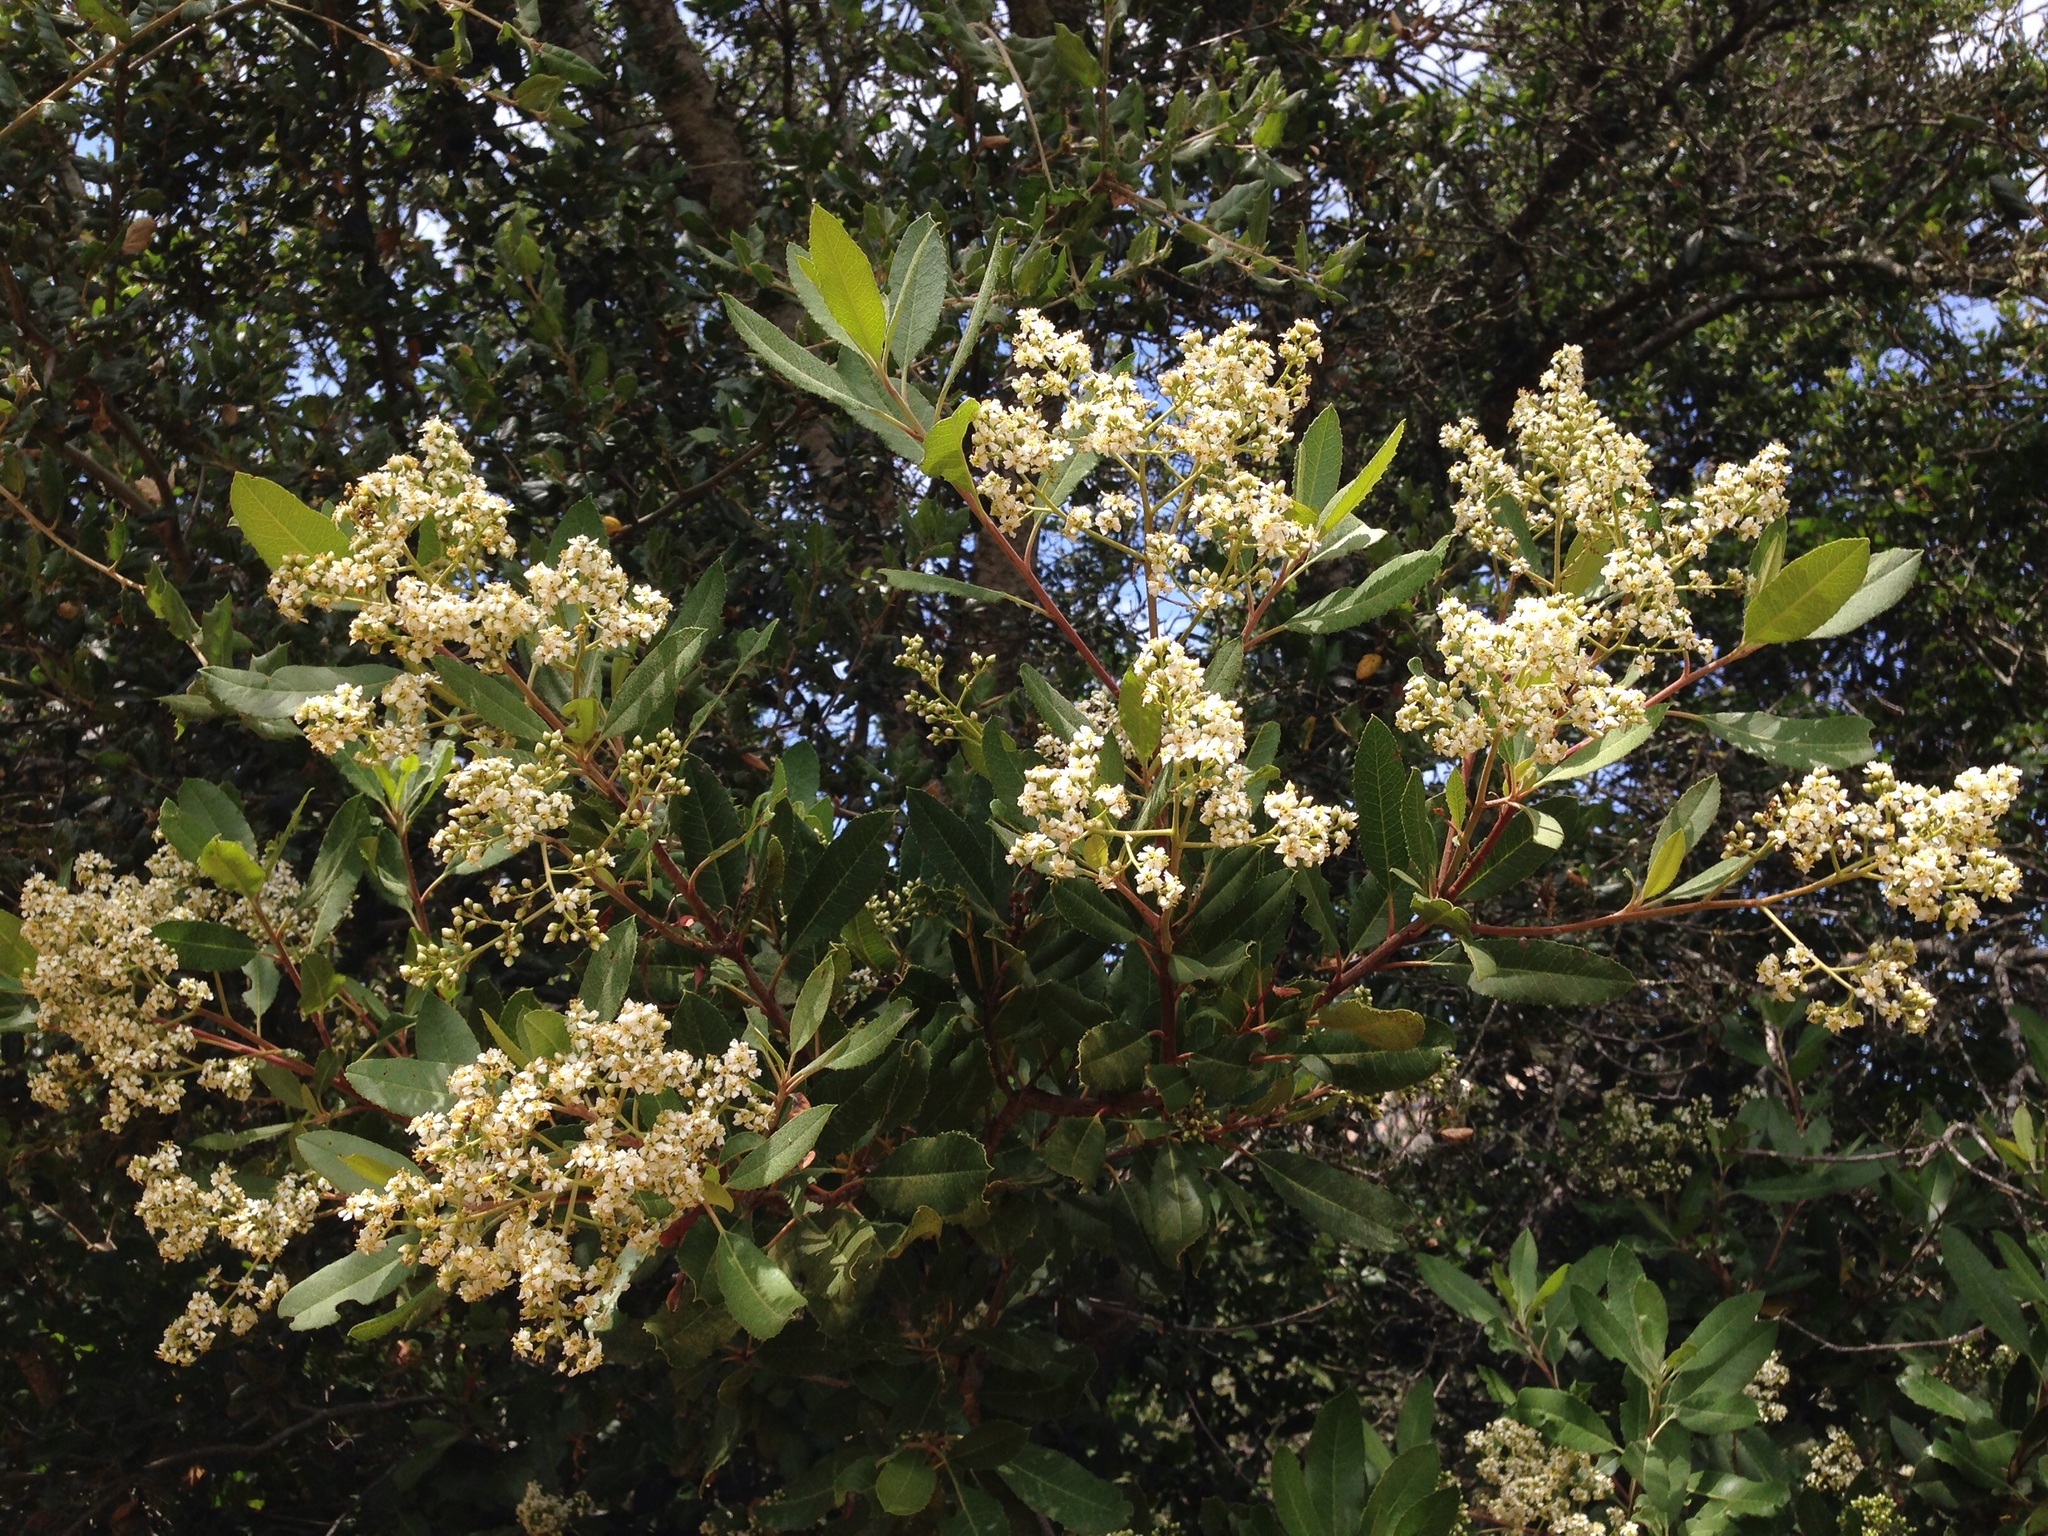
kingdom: Plantae
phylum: Tracheophyta
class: Magnoliopsida
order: Rosales
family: Rosaceae
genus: Heteromeles
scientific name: Heteromeles arbutifolia
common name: California-holly
